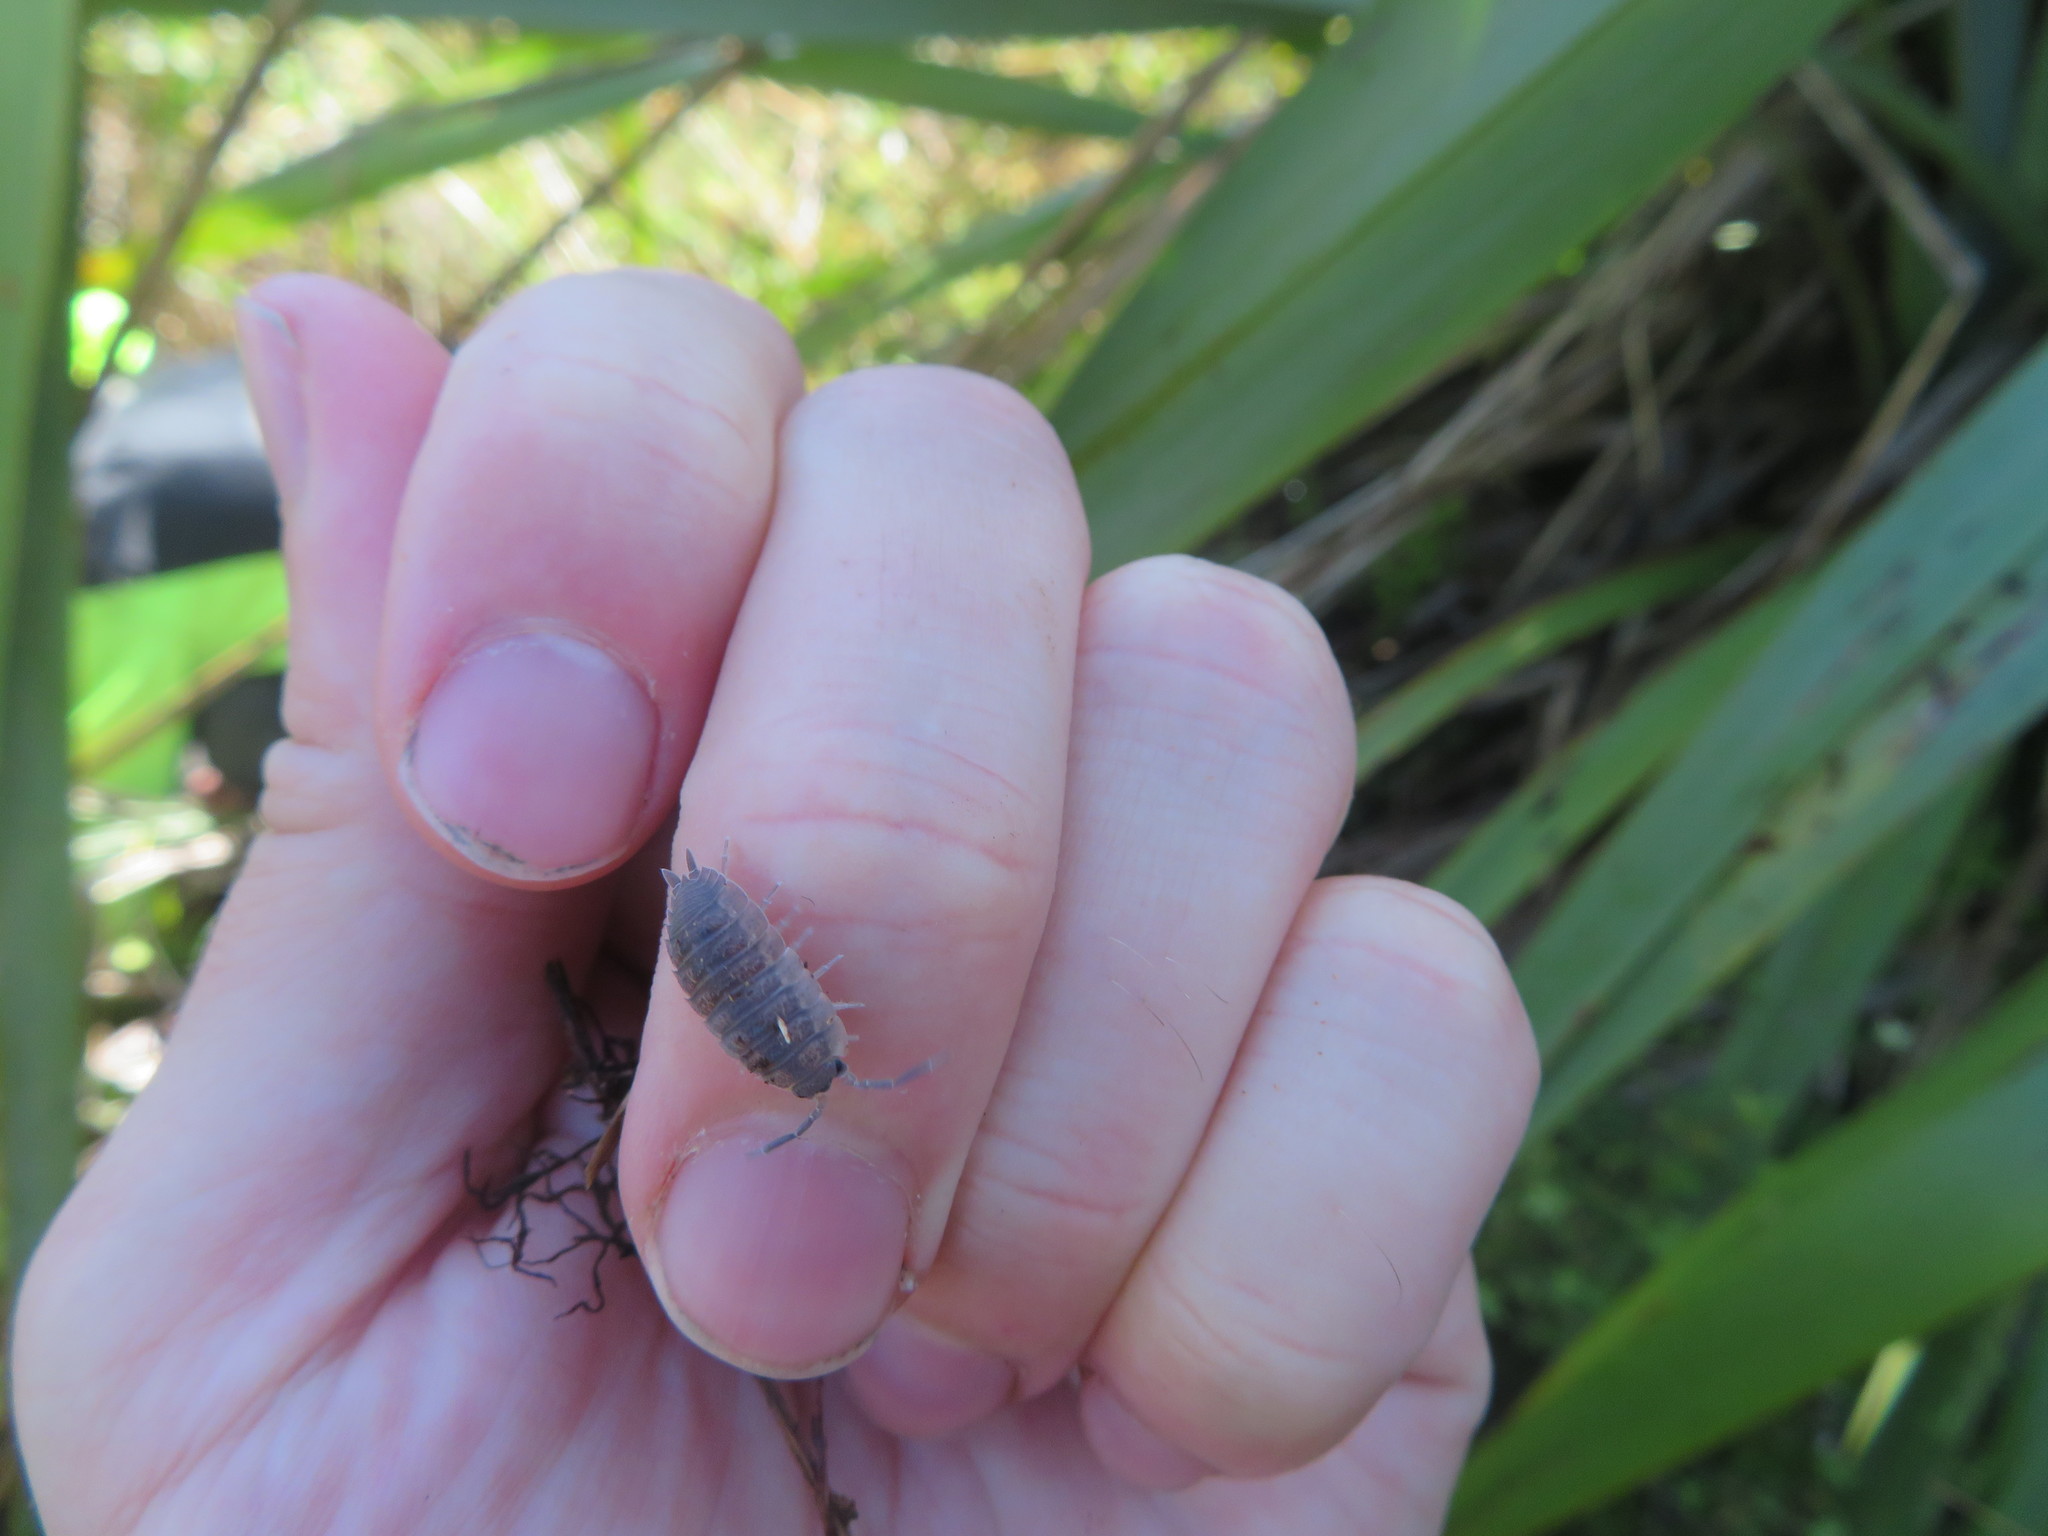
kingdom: Animalia
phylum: Arthropoda
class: Malacostraca
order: Isopoda
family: Porcellionidae
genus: Porcellio
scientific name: Porcellio scaber
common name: Common rough woodlouse
